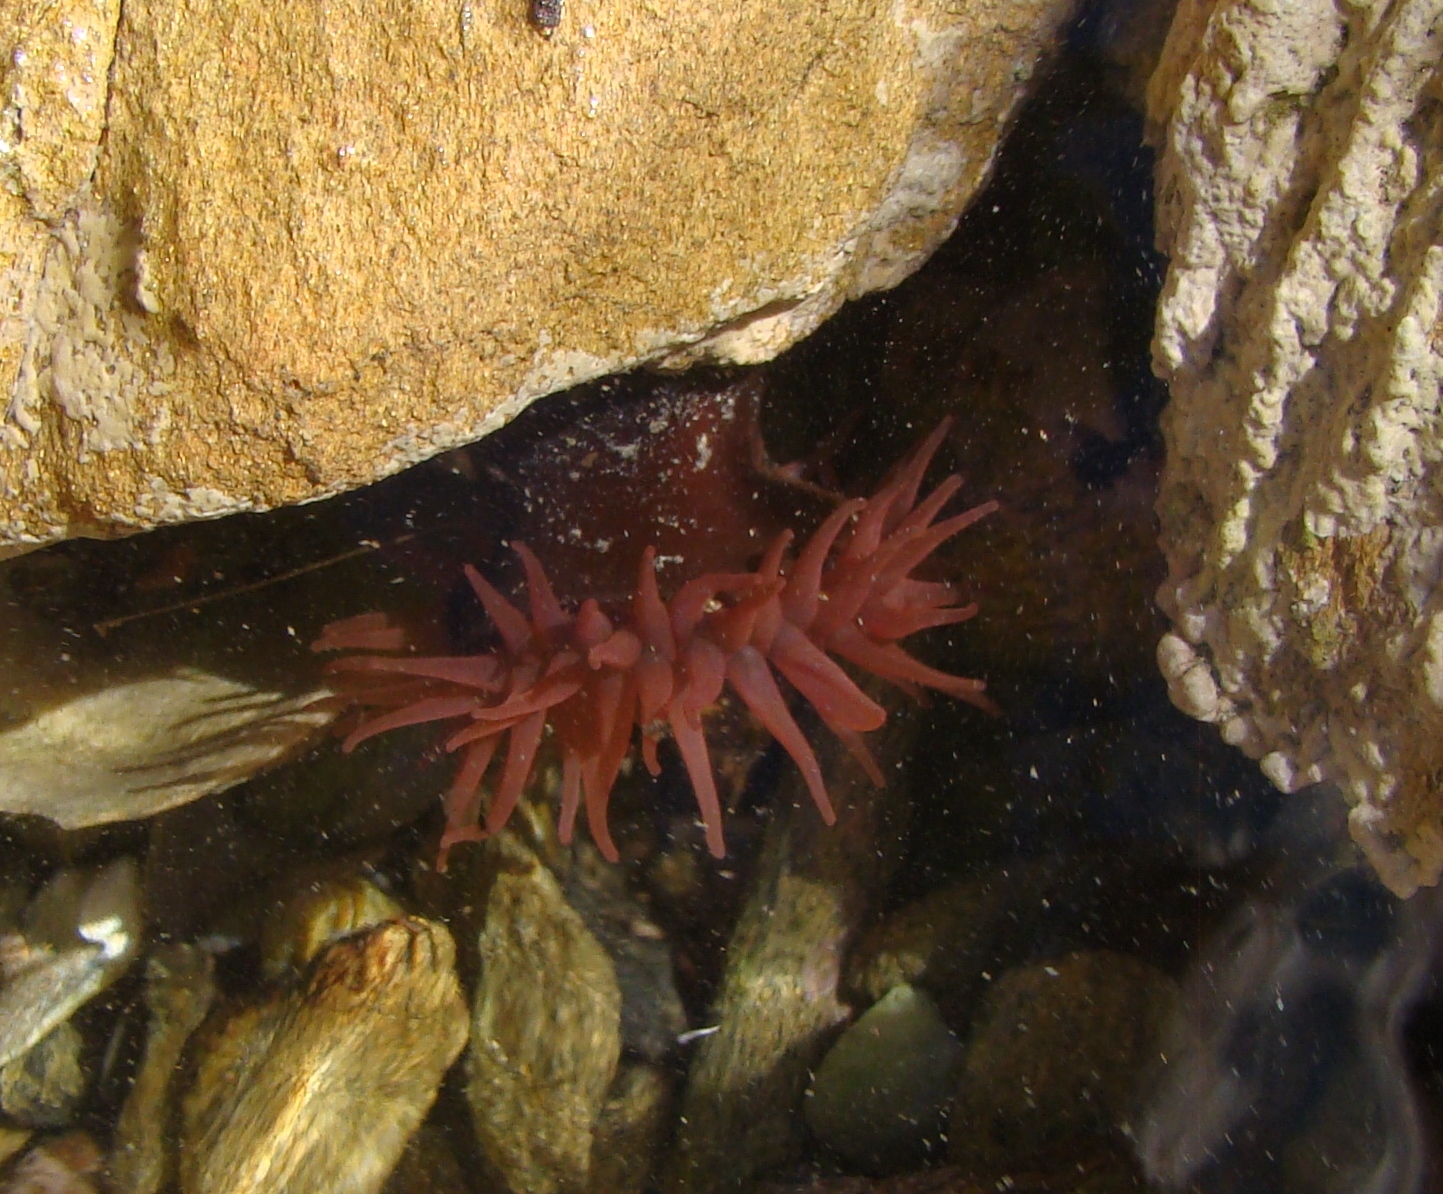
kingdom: Animalia
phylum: Cnidaria
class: Anthozoa
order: Actiniaria
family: Actiniidae
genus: Actinia
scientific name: Actinia tenebrosa
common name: Waratah anemone
